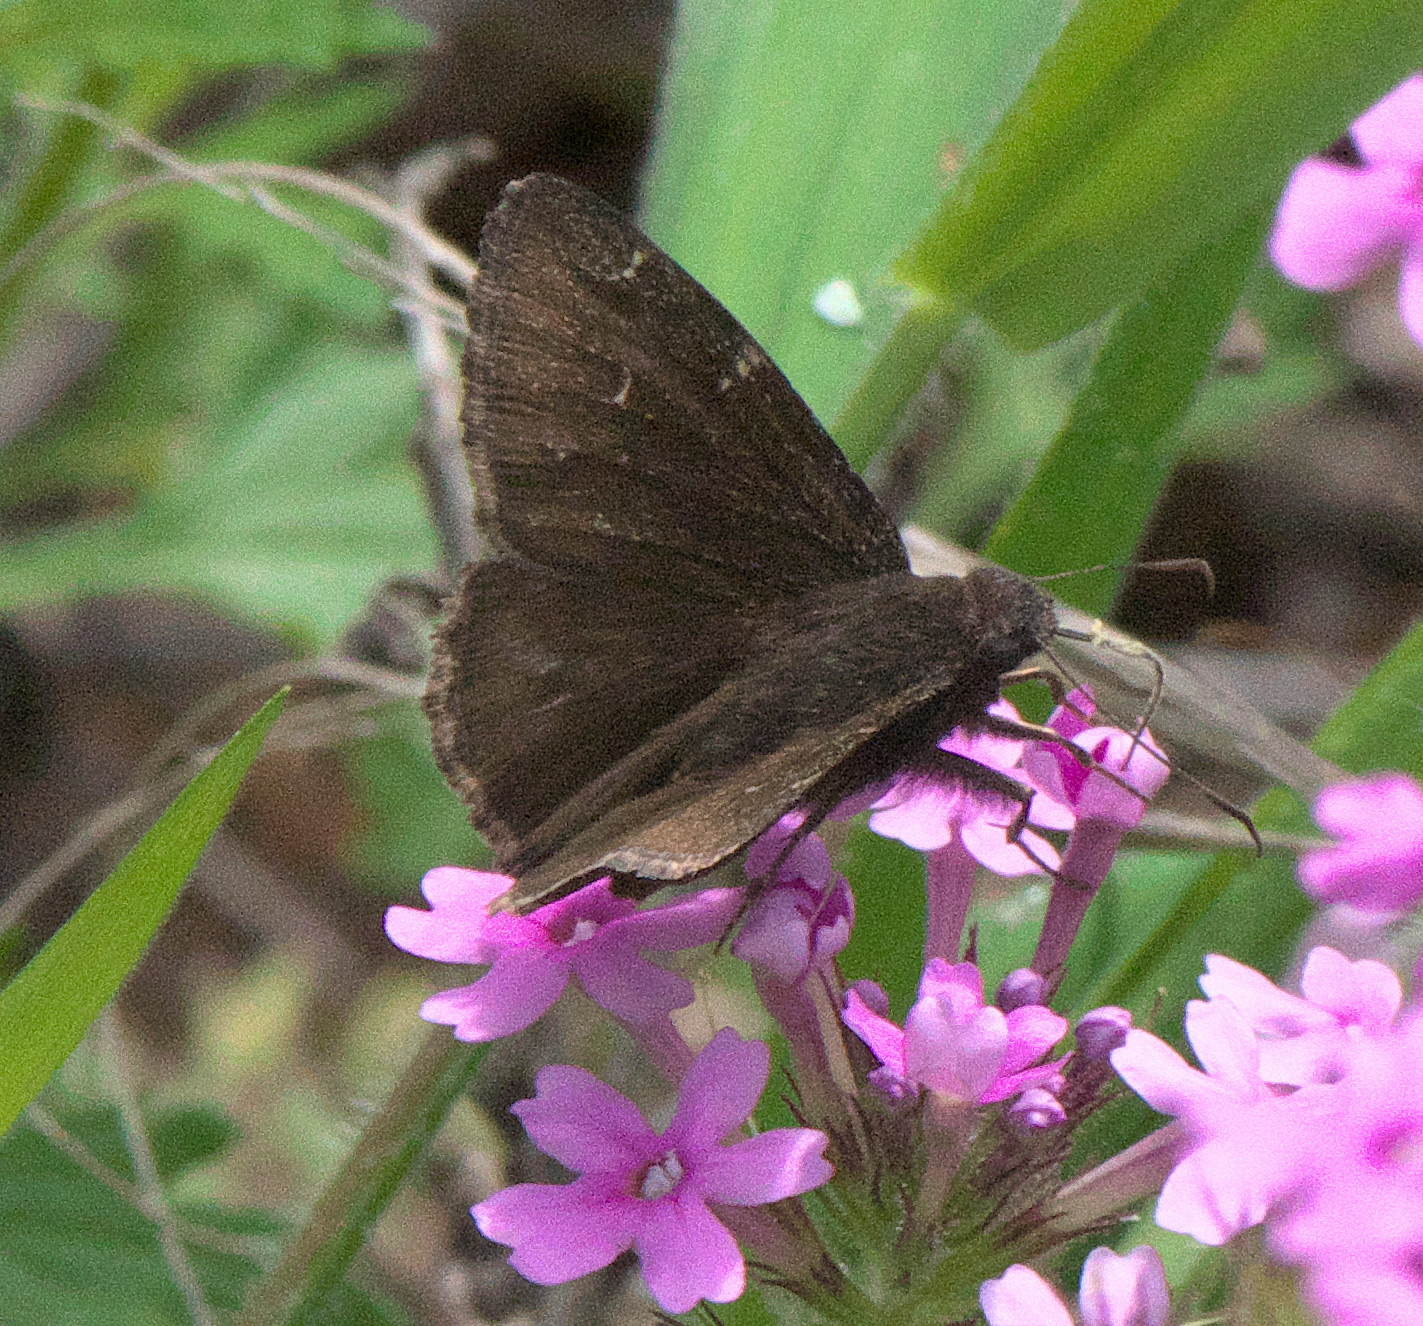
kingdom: Animalia
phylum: Arthropoda
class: Insecta
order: Lepidoptera
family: Hesperiidae
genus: Thorybes
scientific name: Thorybes pylades
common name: Northern cloudywing
